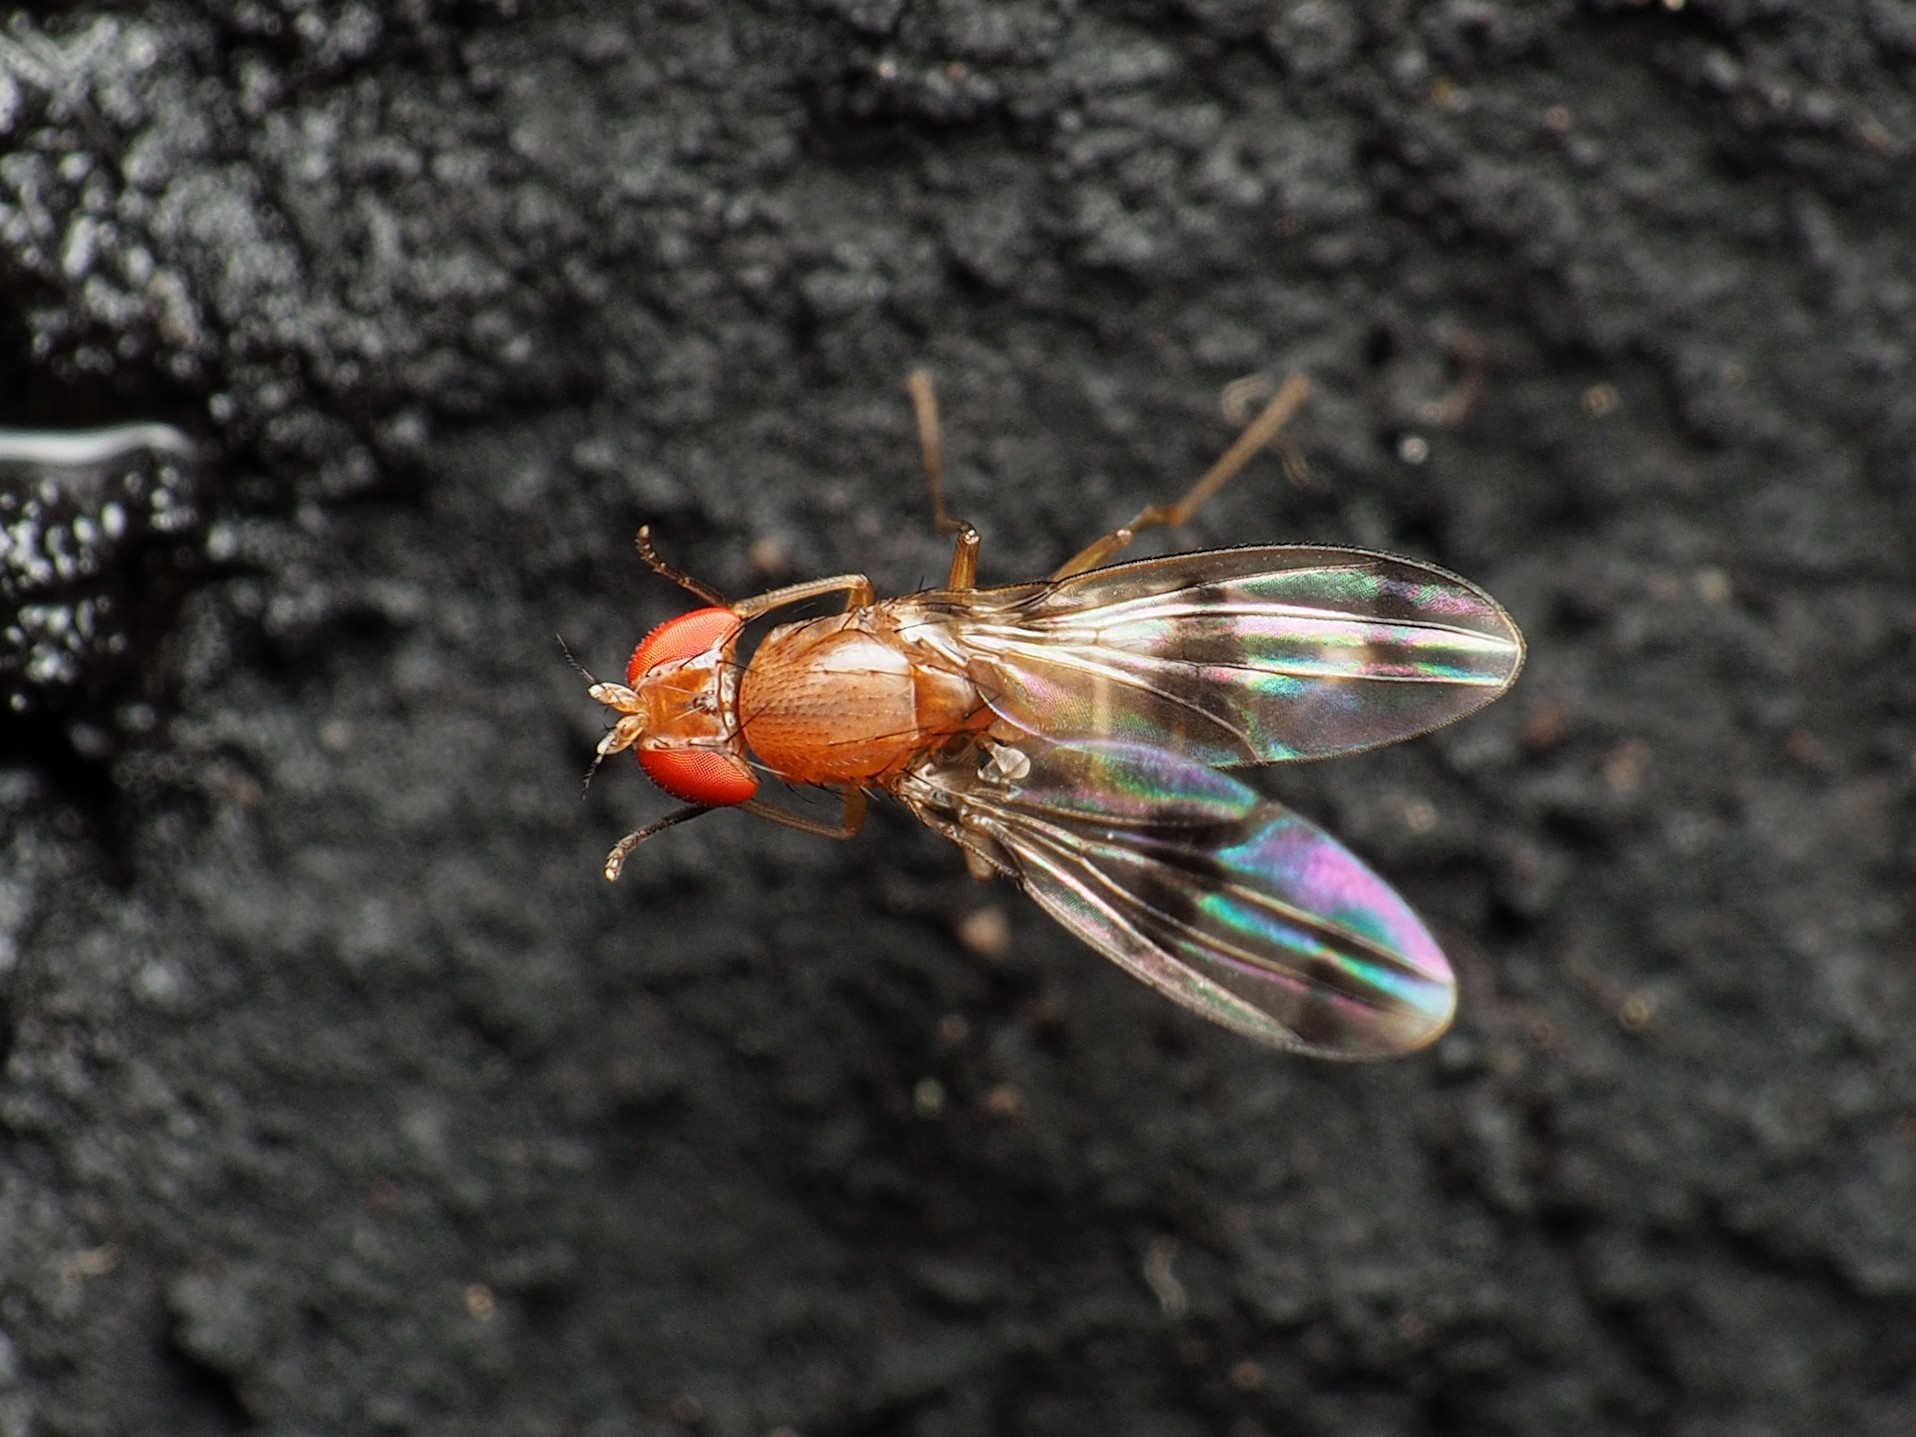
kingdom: Animalia
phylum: Arthropoda
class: Insecta
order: Diptera
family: Drosophilidae
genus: Chymomyza
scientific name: Chymomyza amoena
